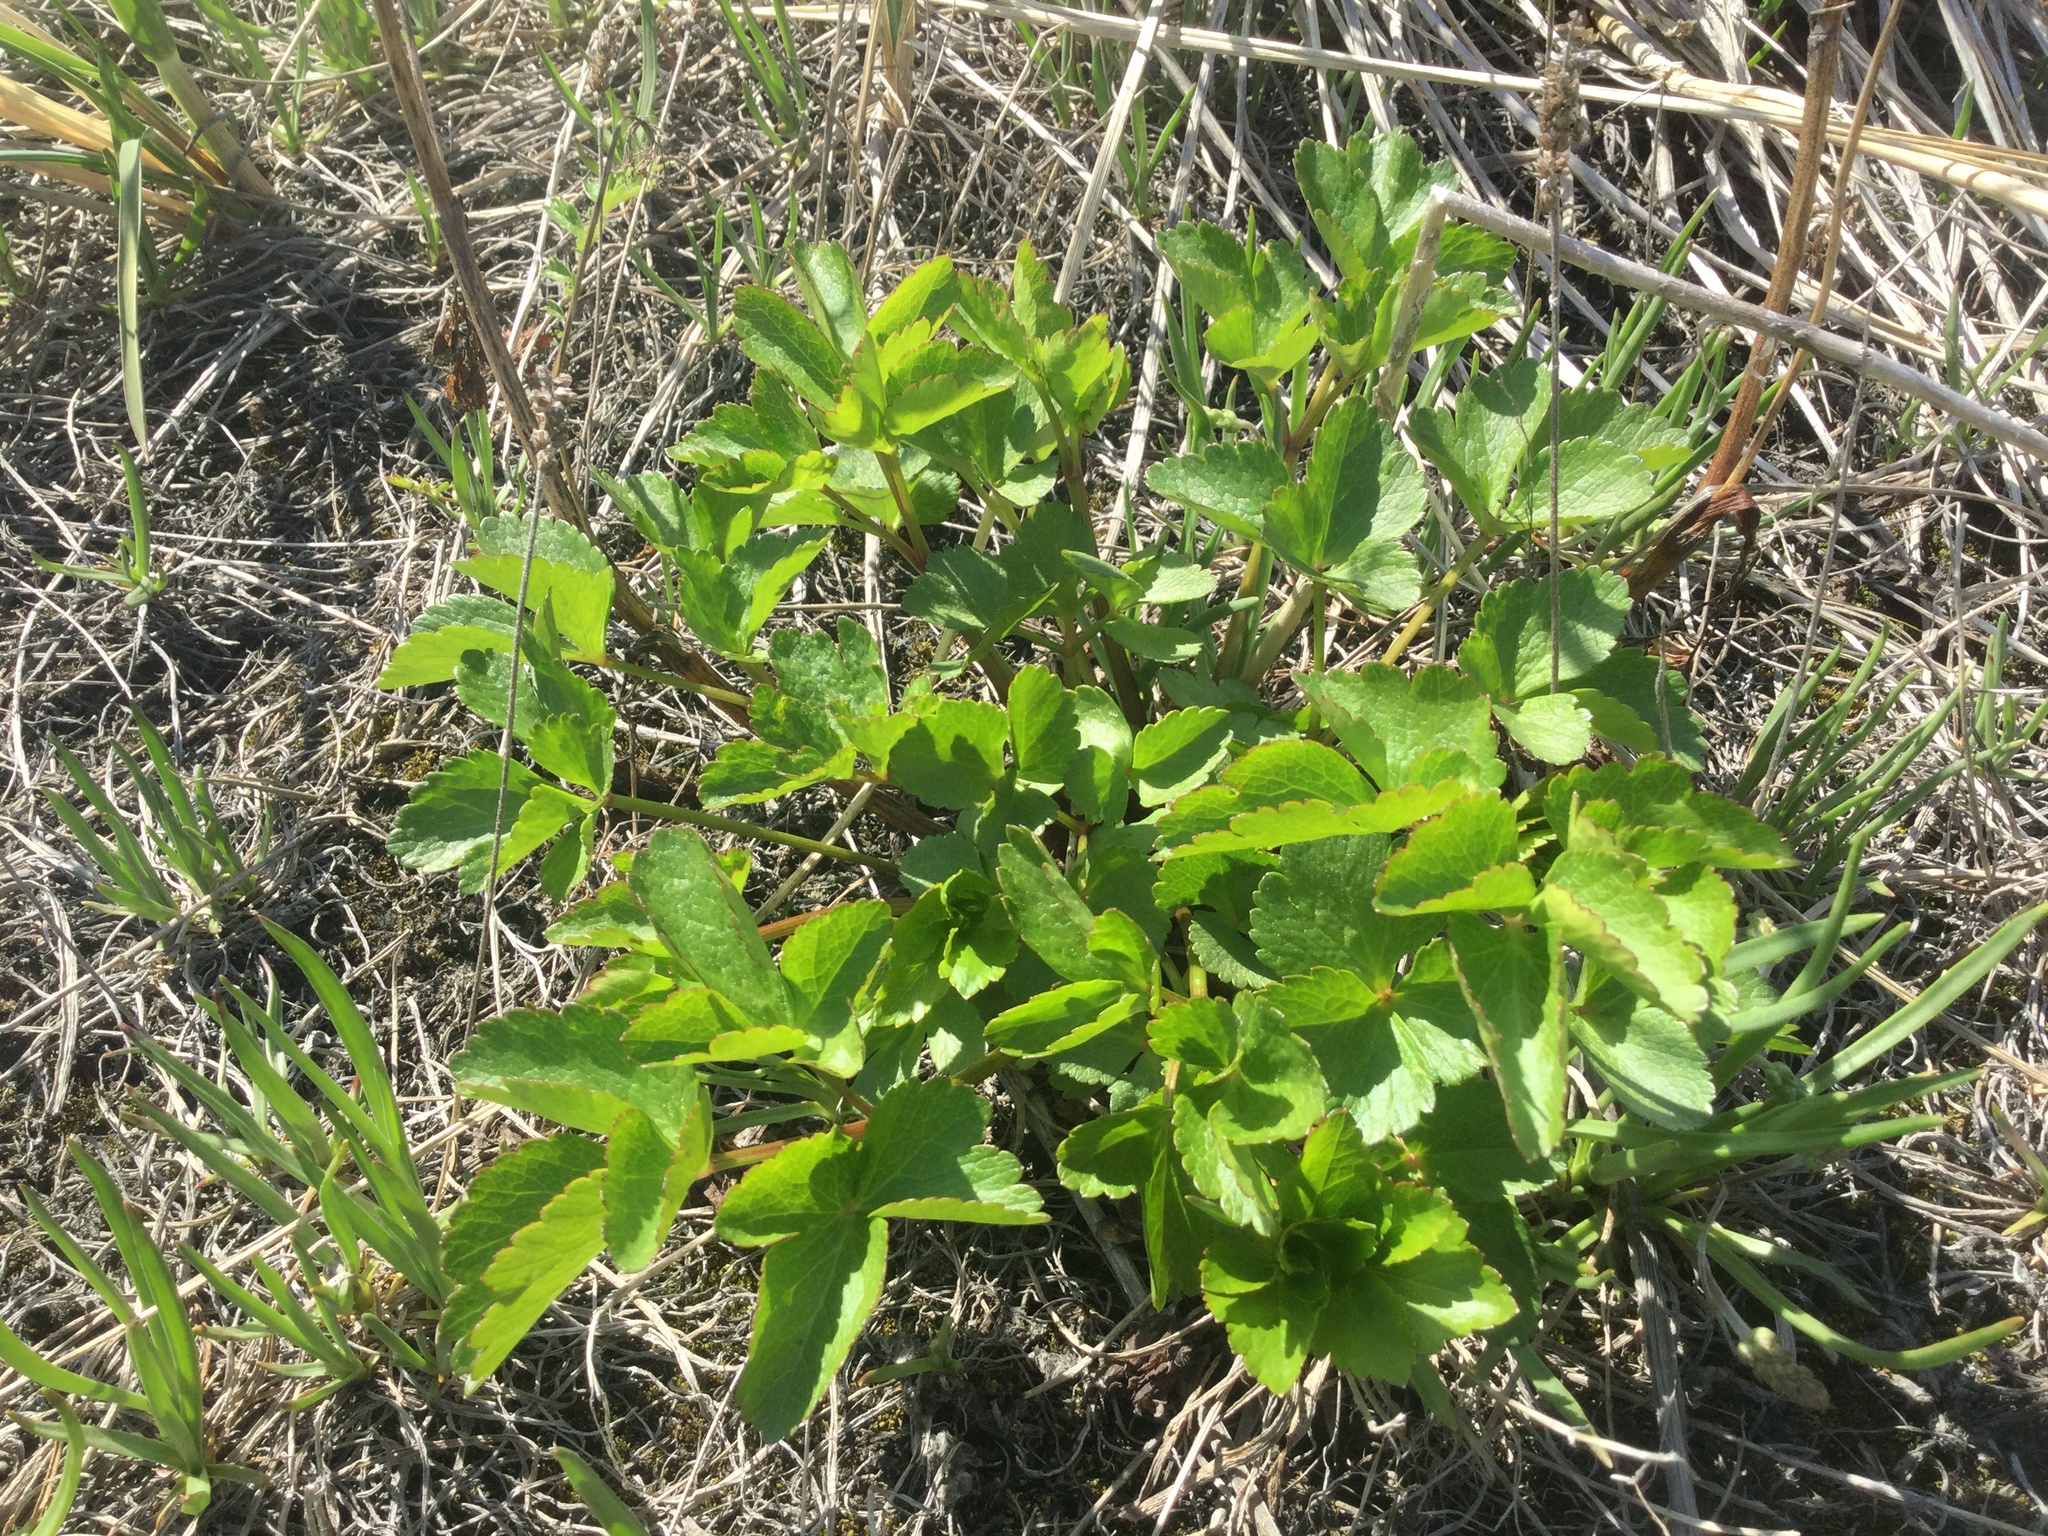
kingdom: Plantae
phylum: Tracheophyta
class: Magnoliopsida
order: Apiales
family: Apiaceae
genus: Ligusticum
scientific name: Ligusticum scothicum
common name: Beach lovage
